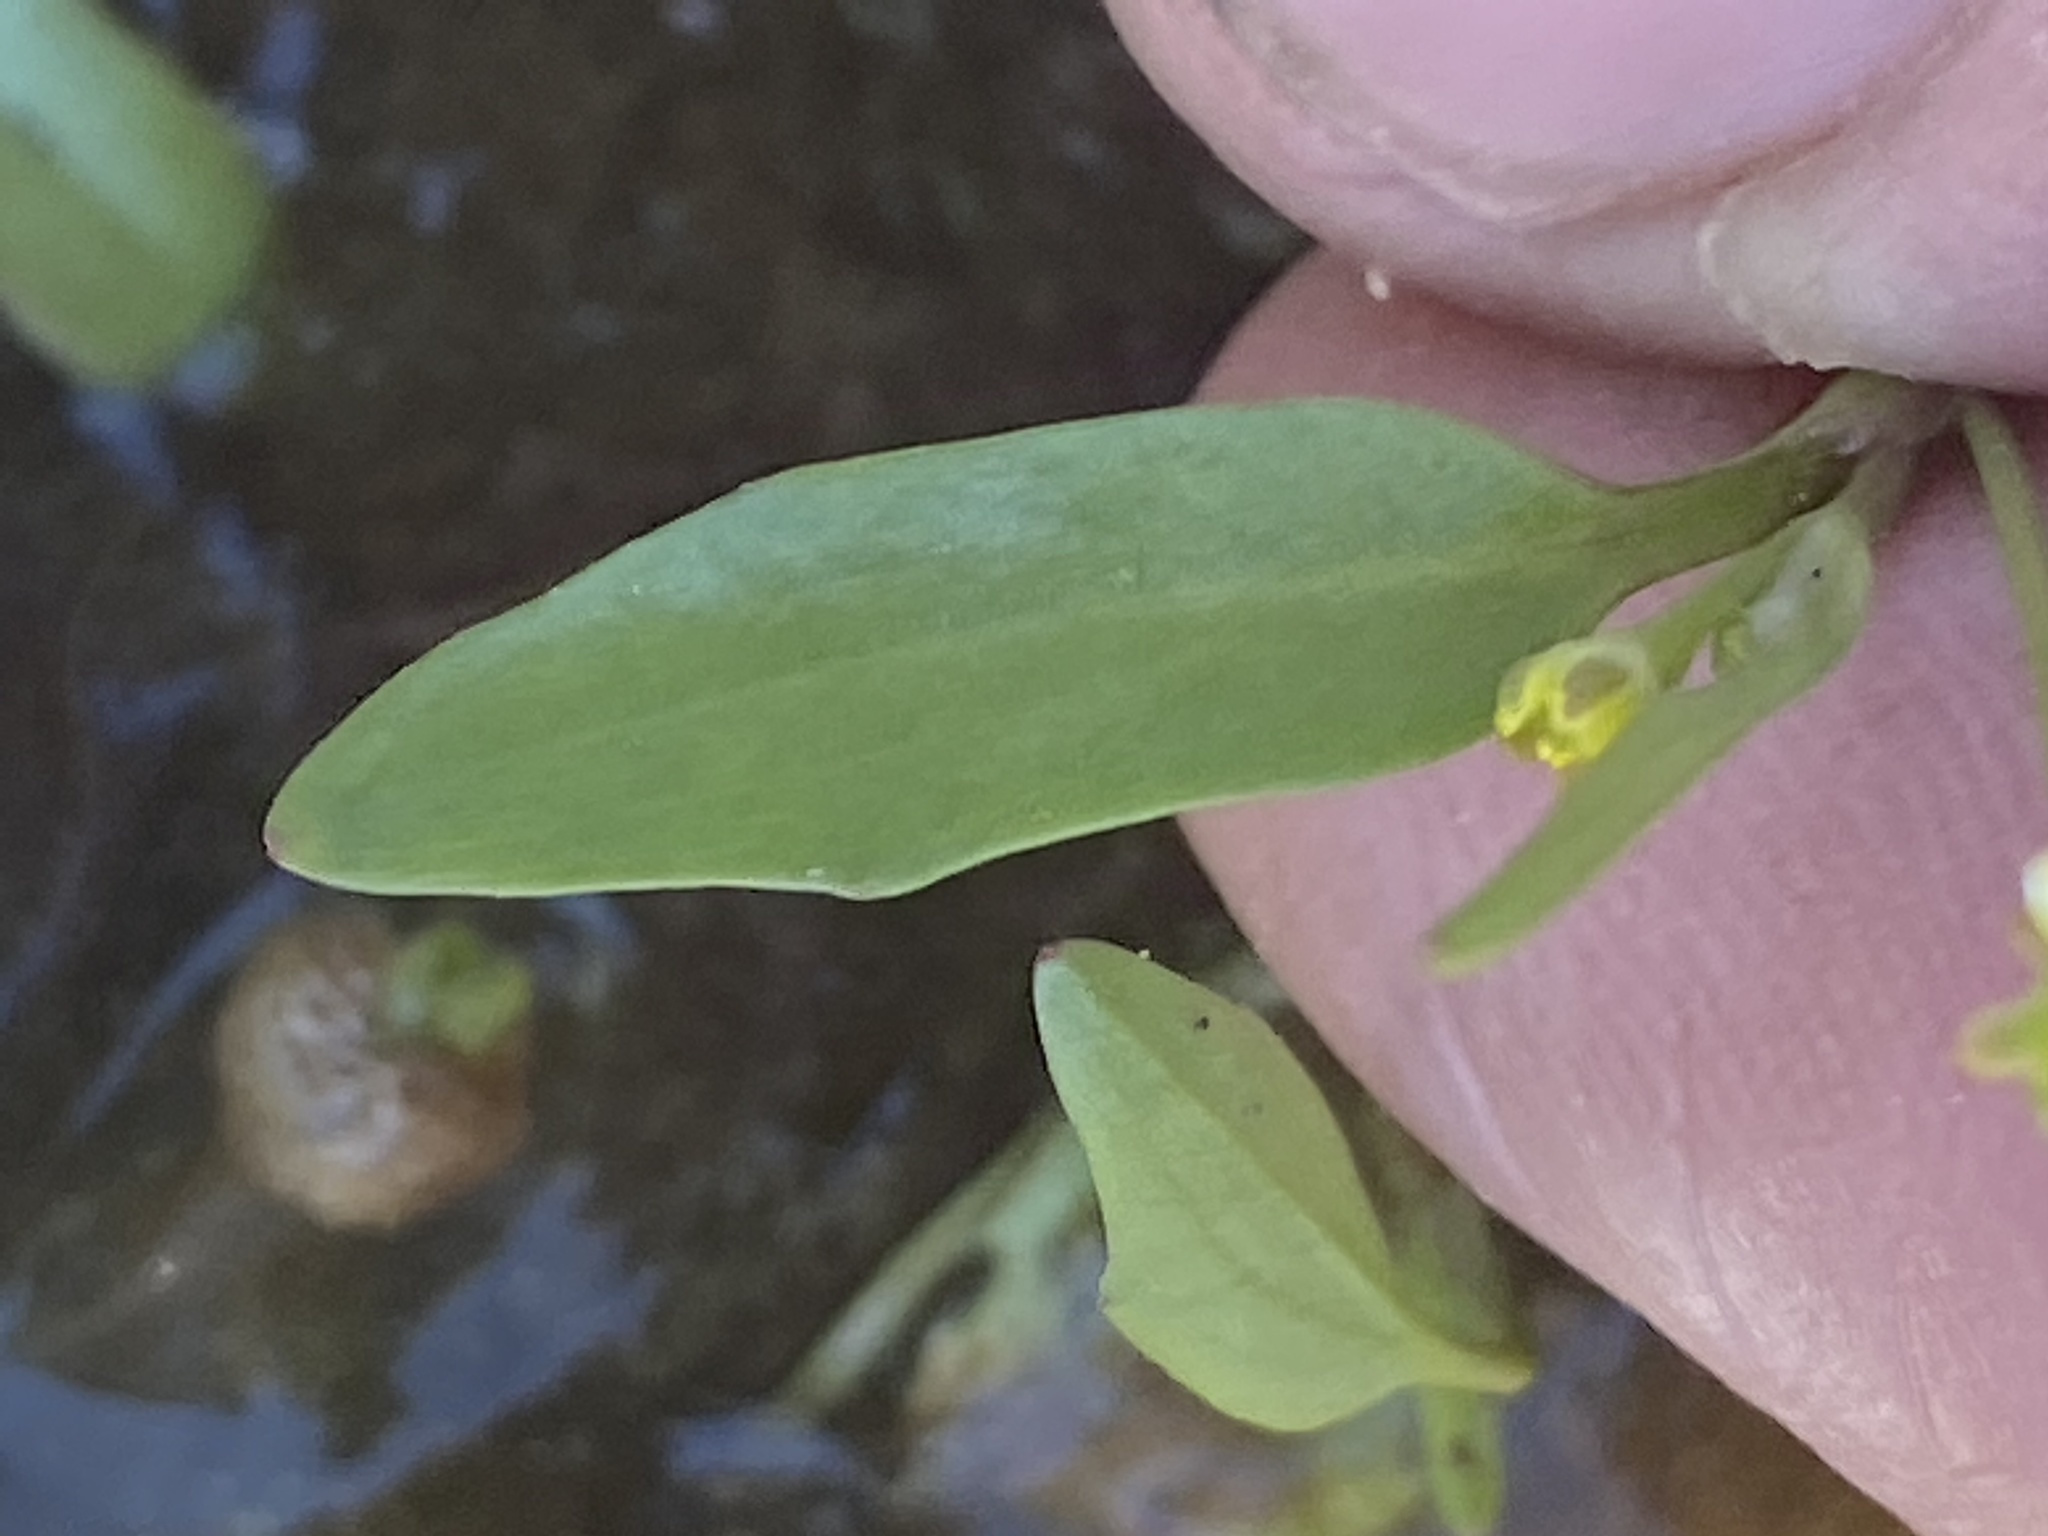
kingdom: Plantae
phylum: Tracheophyta
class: Magnoliopsida
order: Ranunculales
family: Ranunculaceae
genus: Ranunculus
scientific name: Ranunculus pusillus
